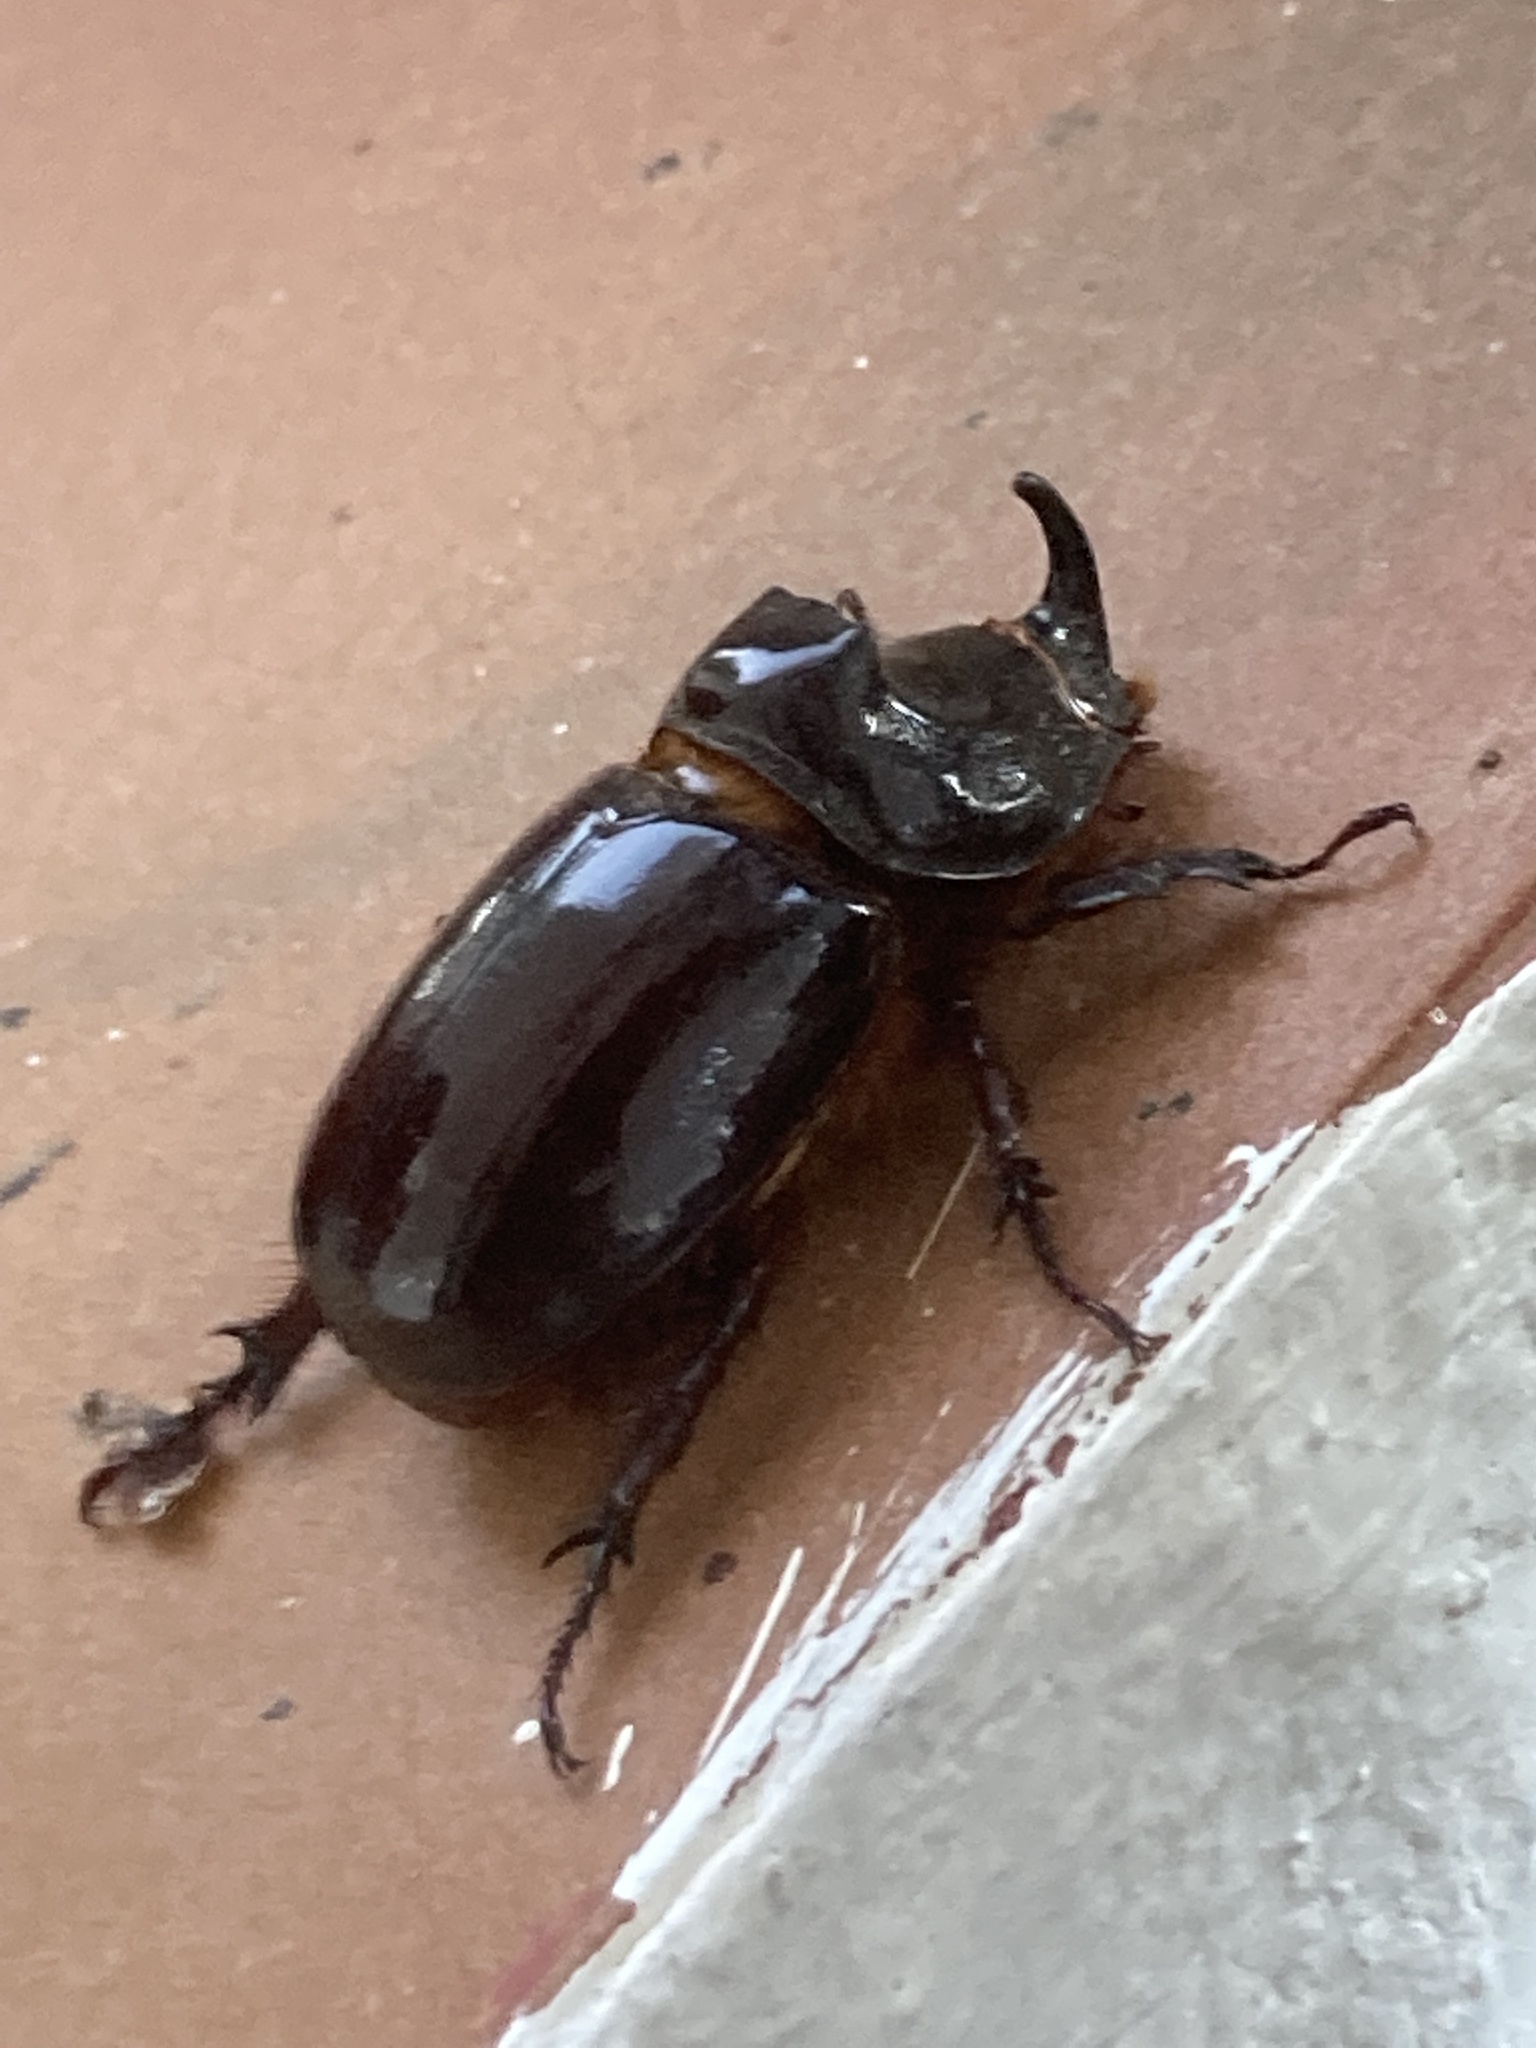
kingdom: Animalia
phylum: Arthropoda
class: Insecta
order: Coleoptera
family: Scarabaeidae
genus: Oryctes
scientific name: Oryctes nasicornis
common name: European rhinoceros beetle
